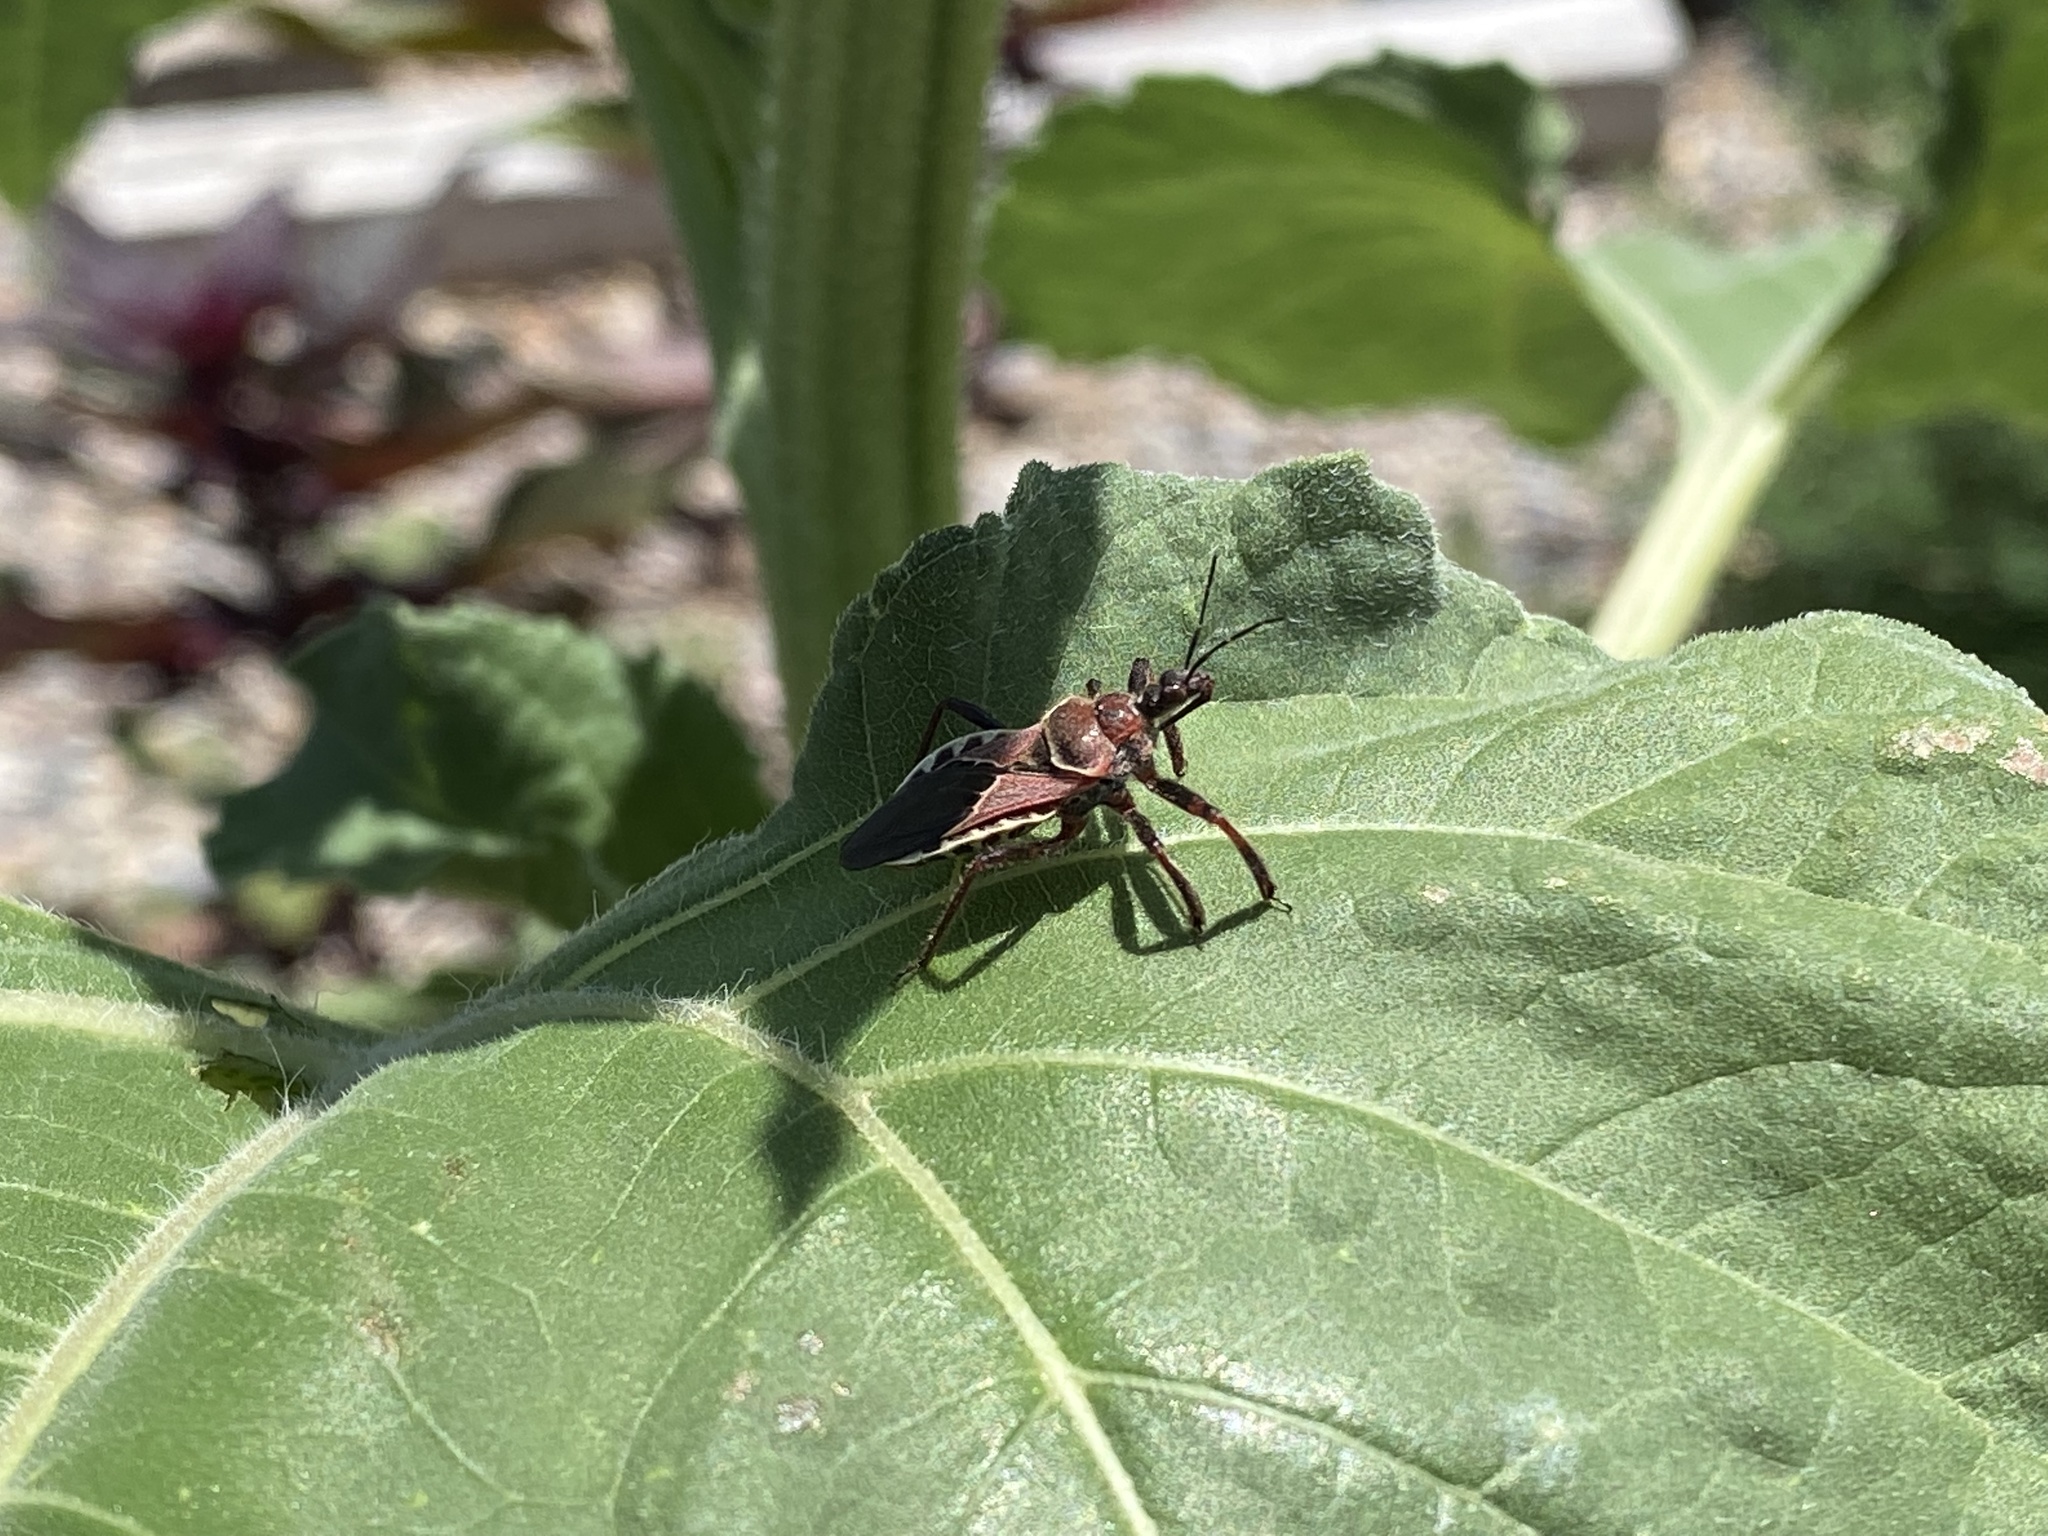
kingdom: Animalia
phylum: Arthropoda
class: Insecta
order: Hemiptera
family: Reduviidae
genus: Apiomerus
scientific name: Apiomerus spissipes
